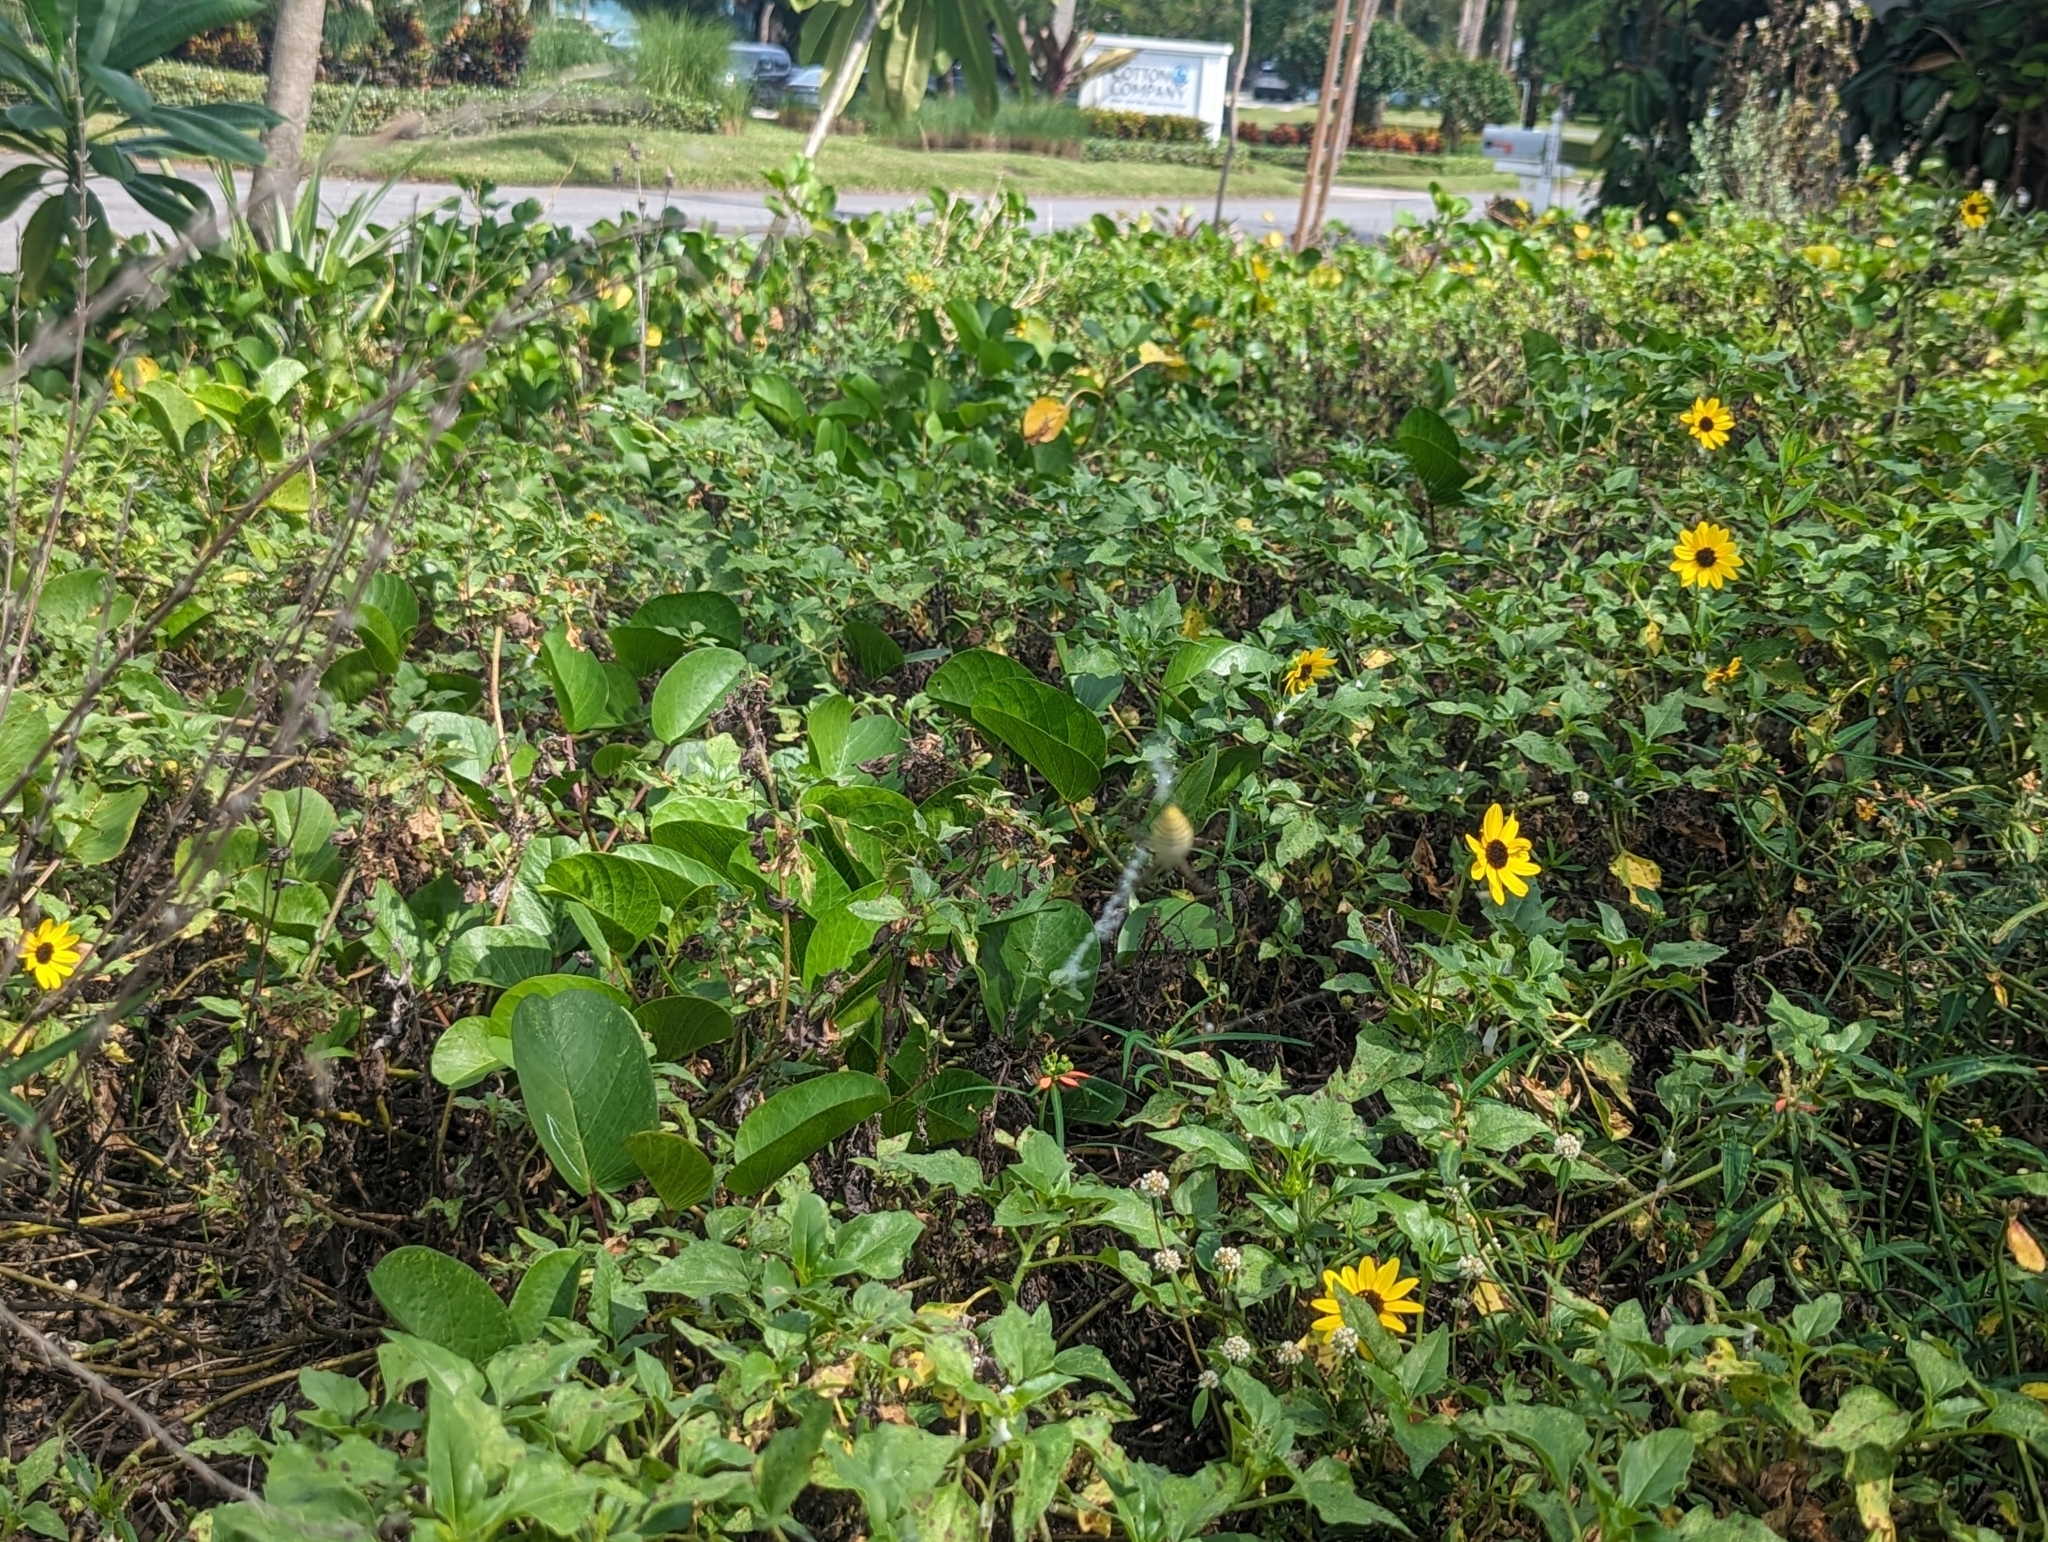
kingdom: Animalia
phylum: Arthropoda
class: Arachnida
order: Araneae
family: Araneidae
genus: Argiope
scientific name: Argiope trifasciata
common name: Banded garden spider
